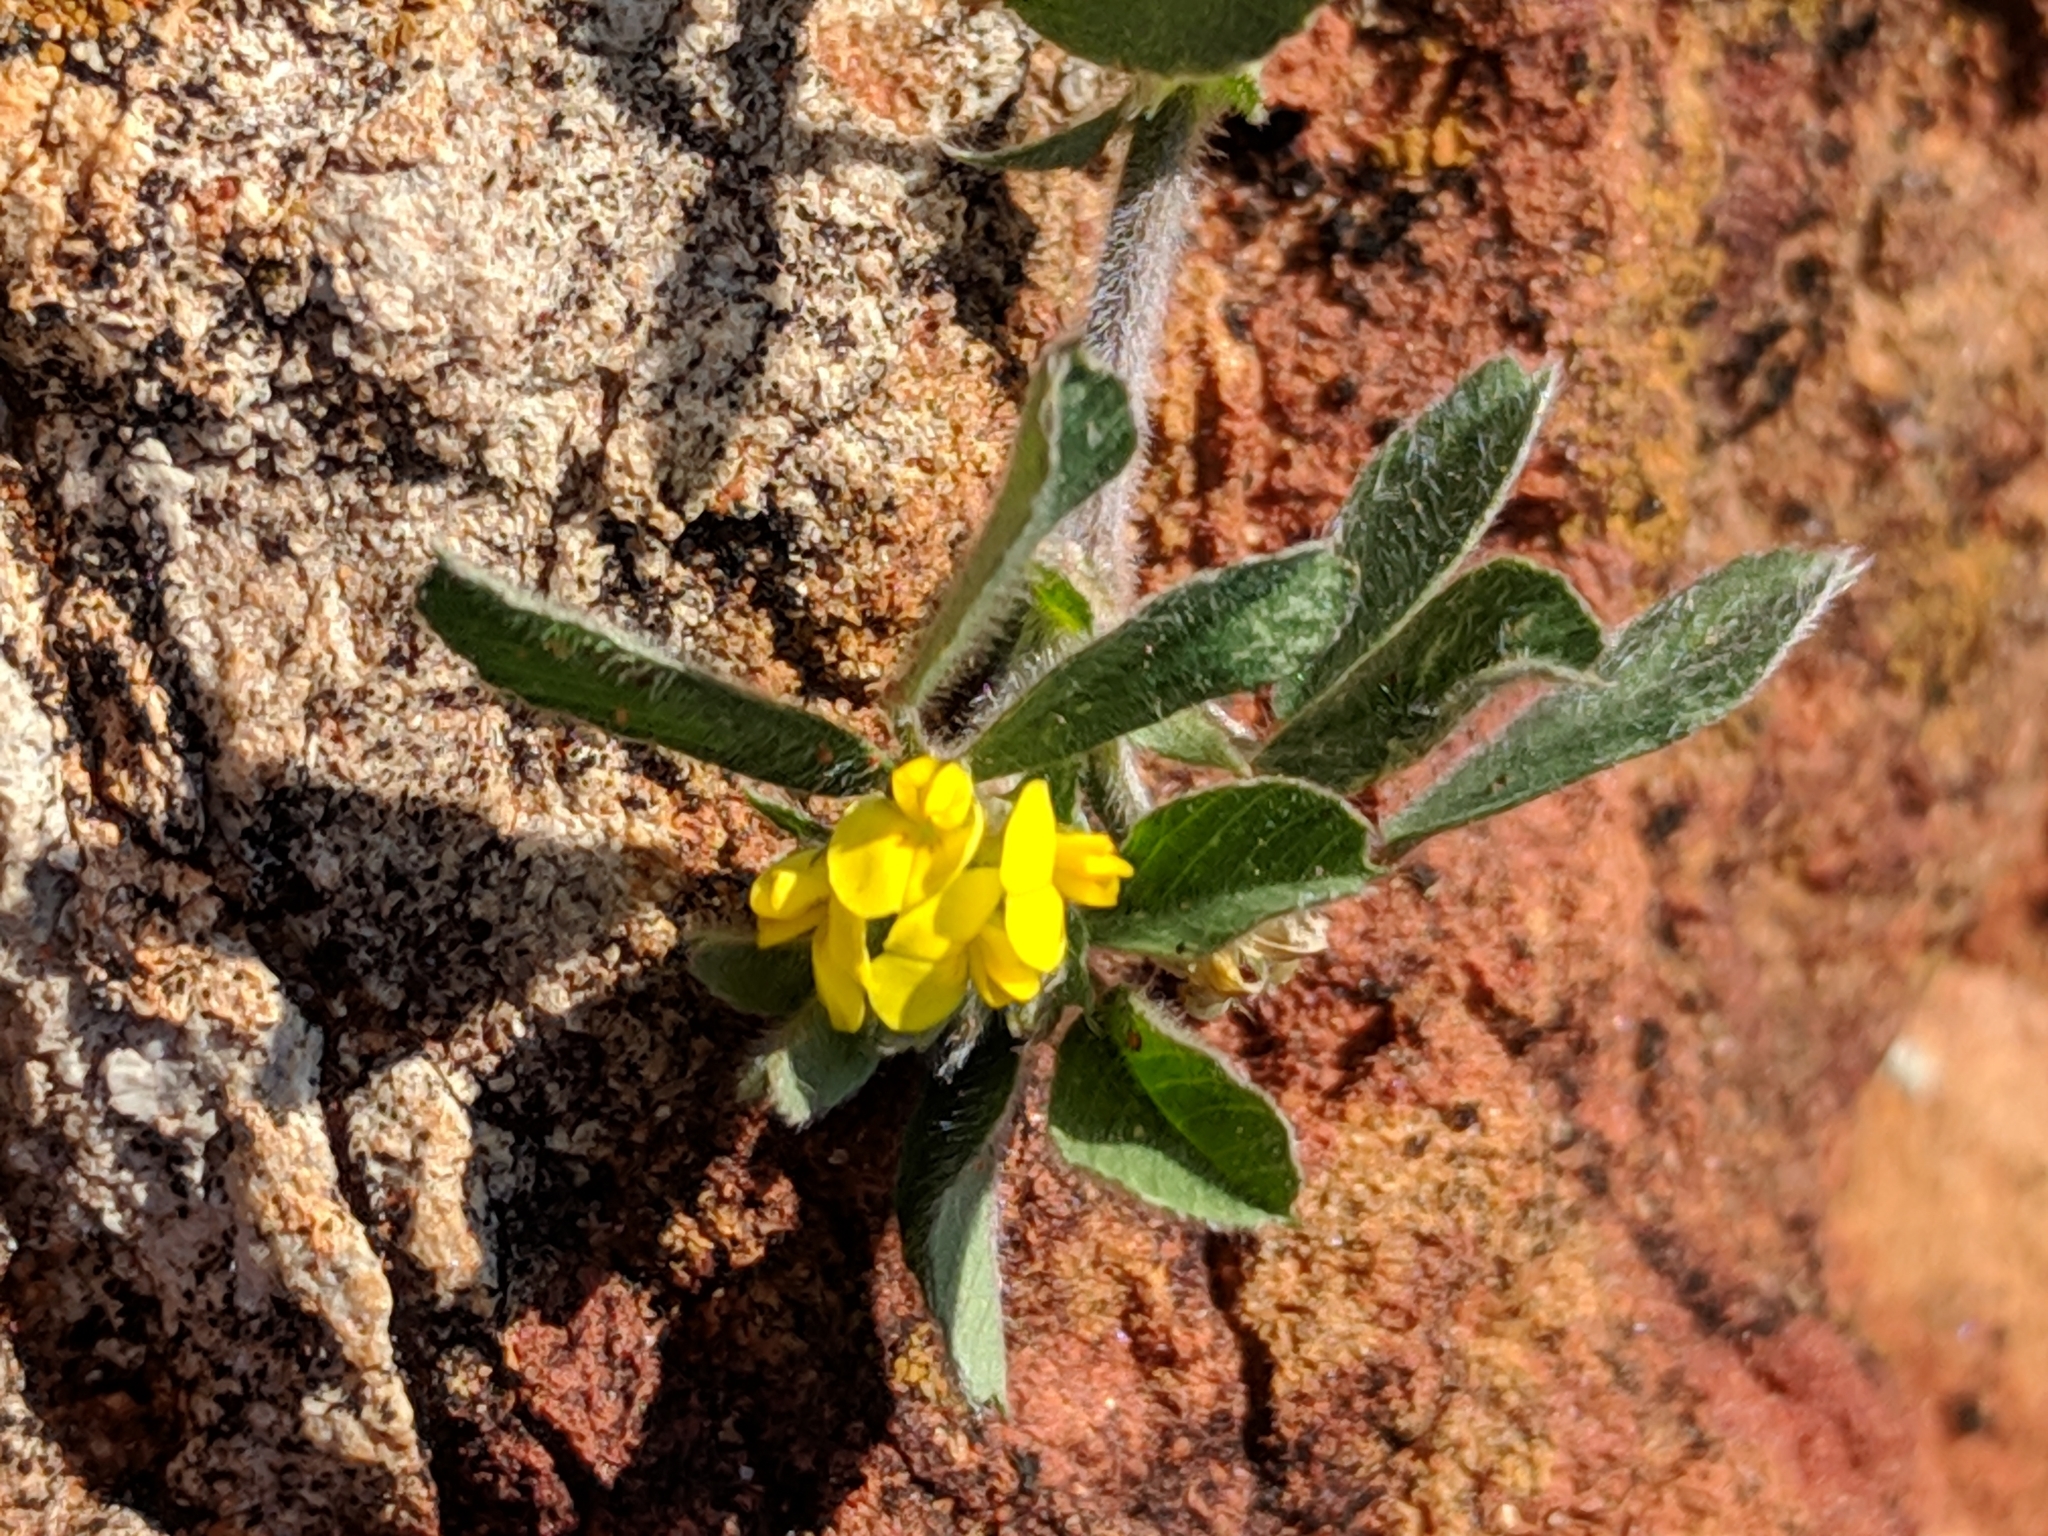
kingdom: Plantae
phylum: Tracheophyta
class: Magnoliopsida
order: Fabales
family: Fabaceae
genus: Medicago
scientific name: Medicago minima
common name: Little bur-clover
